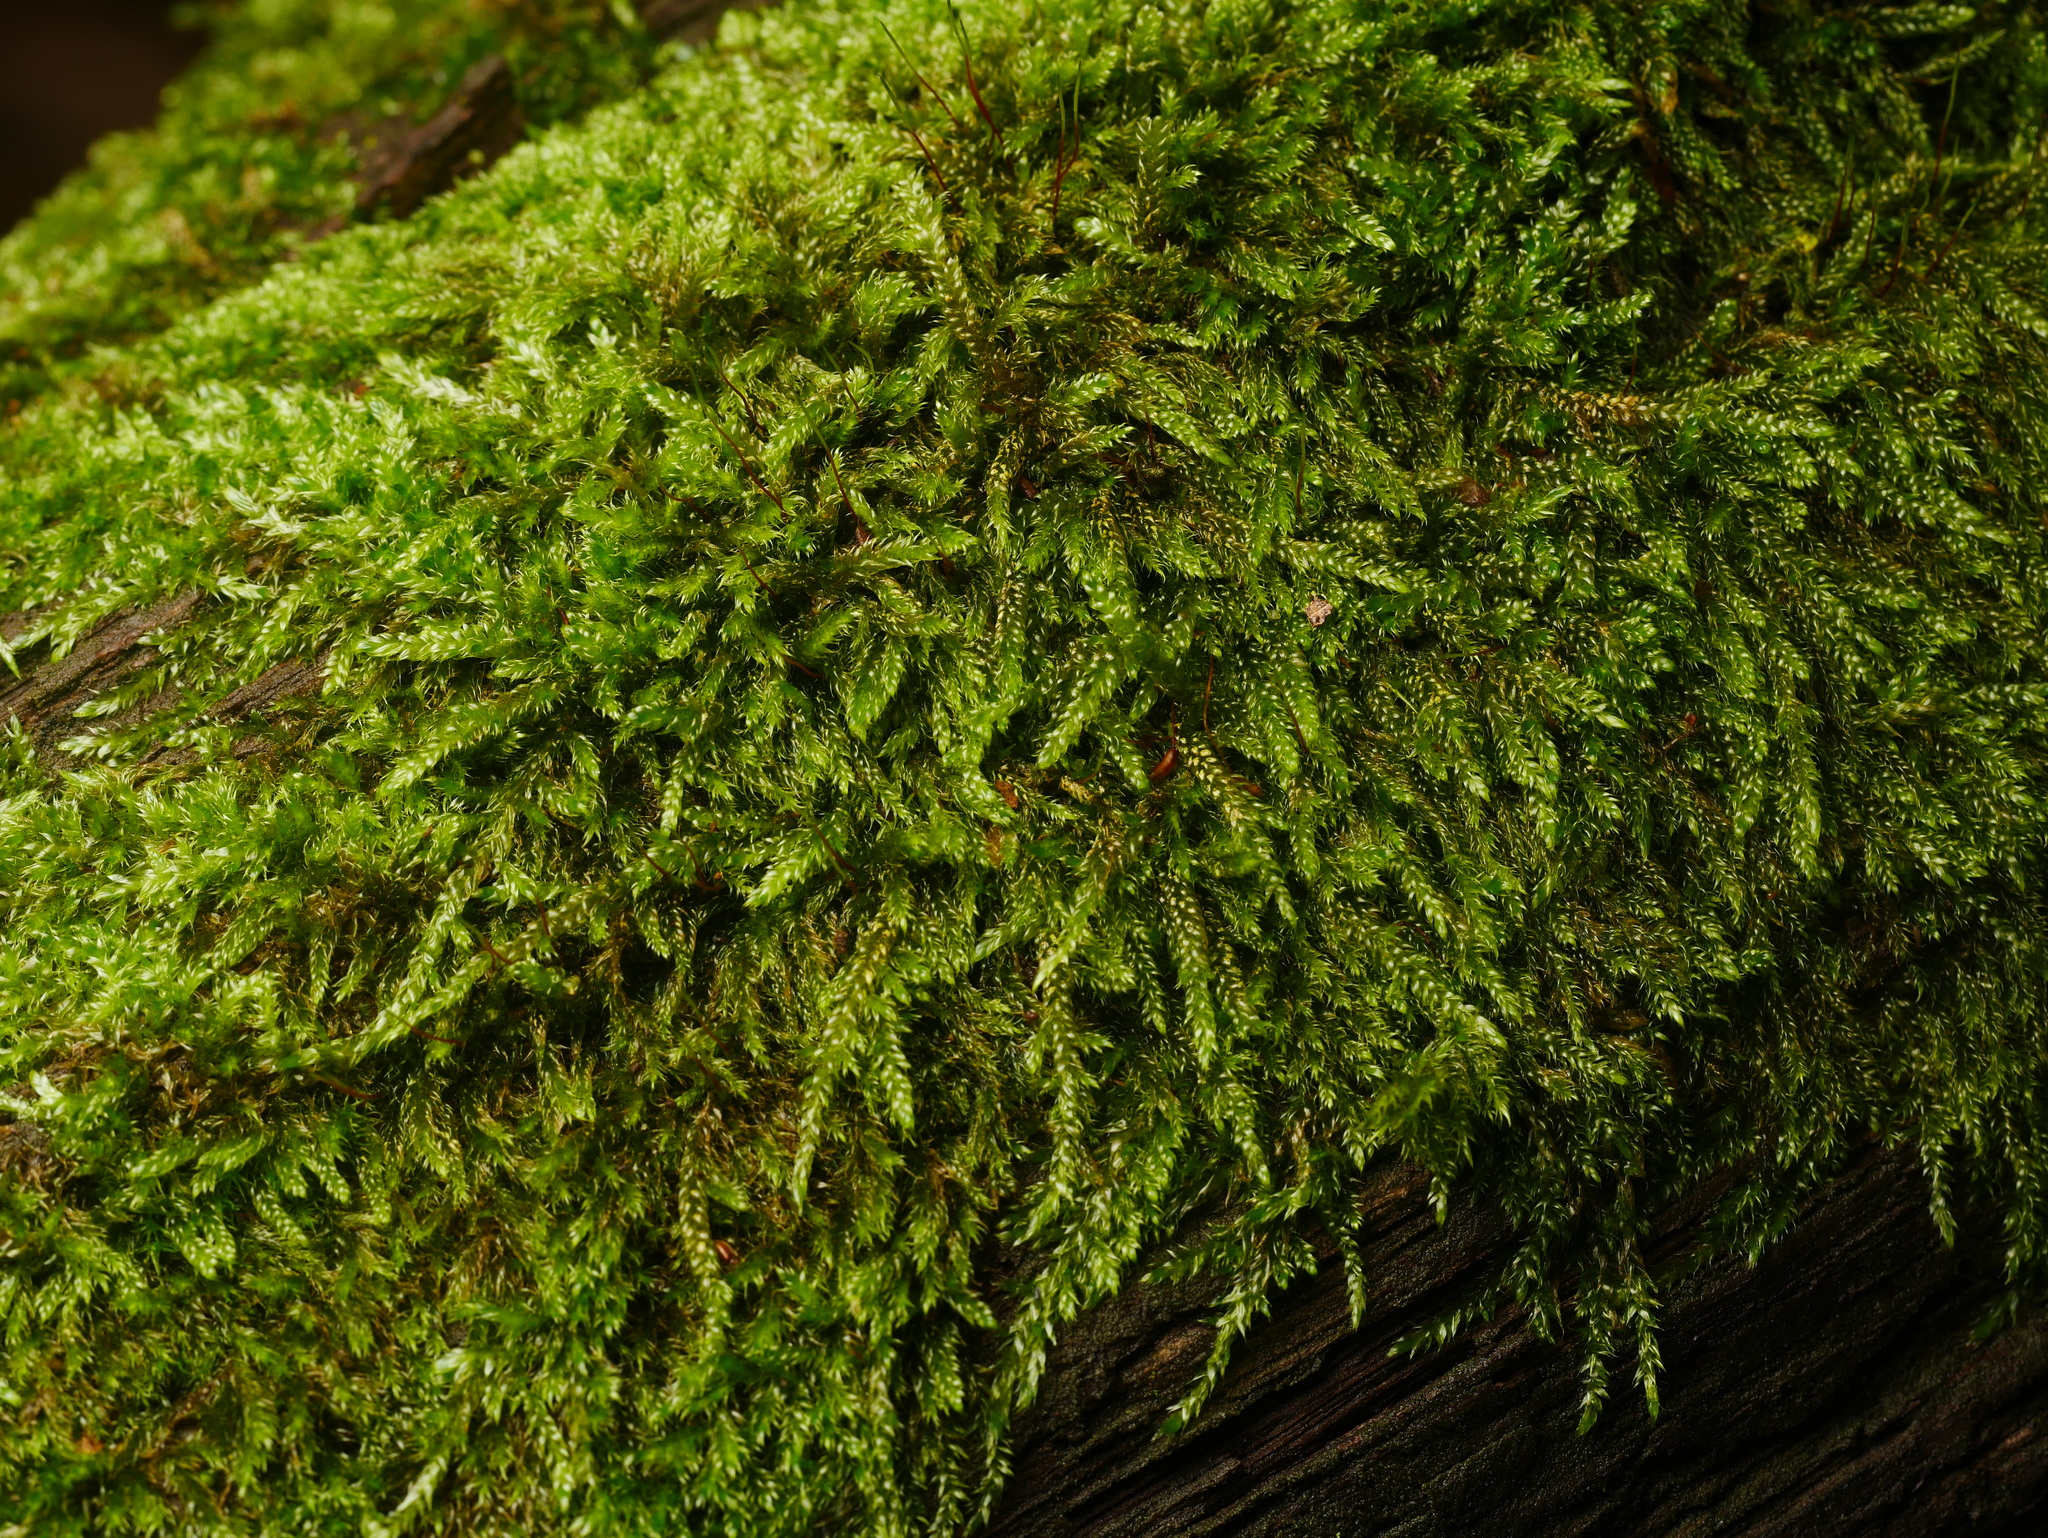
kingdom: Plantae
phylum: Bryophyta
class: Bryopsida
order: Hypnales
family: Hypnaceae
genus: Hypnum
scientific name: Hypnum cupressiforme
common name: Cypress-leaved plait-moss
